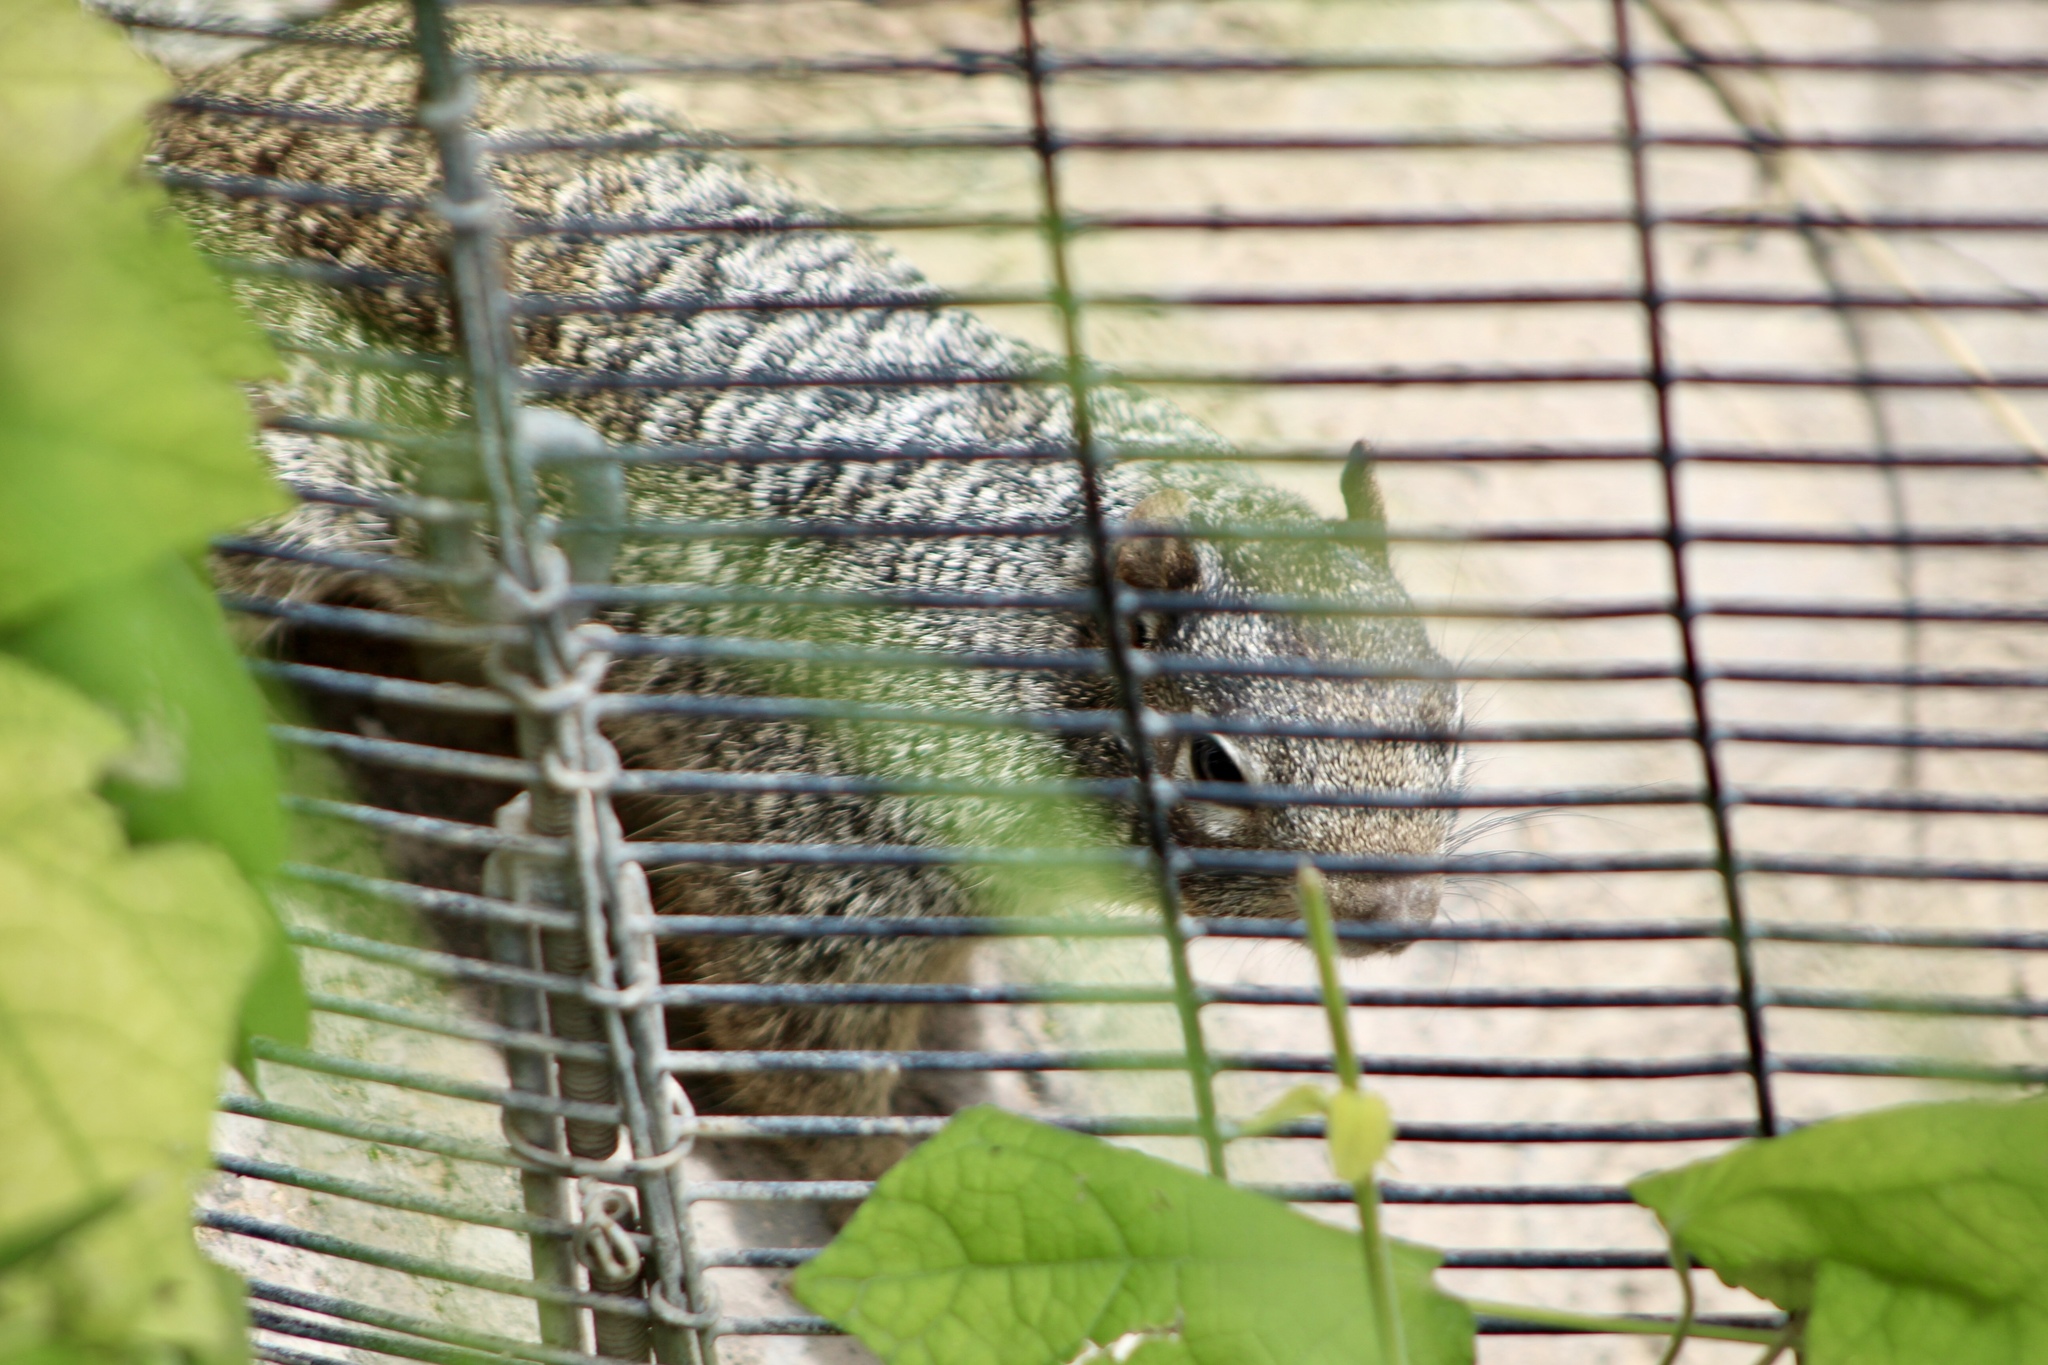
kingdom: Animalia
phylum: Chordata
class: Mammalia
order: Rodentia
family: Sciuridae
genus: Otospermophilus
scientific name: Otospermophilus variegatus
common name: Rock squirrel
